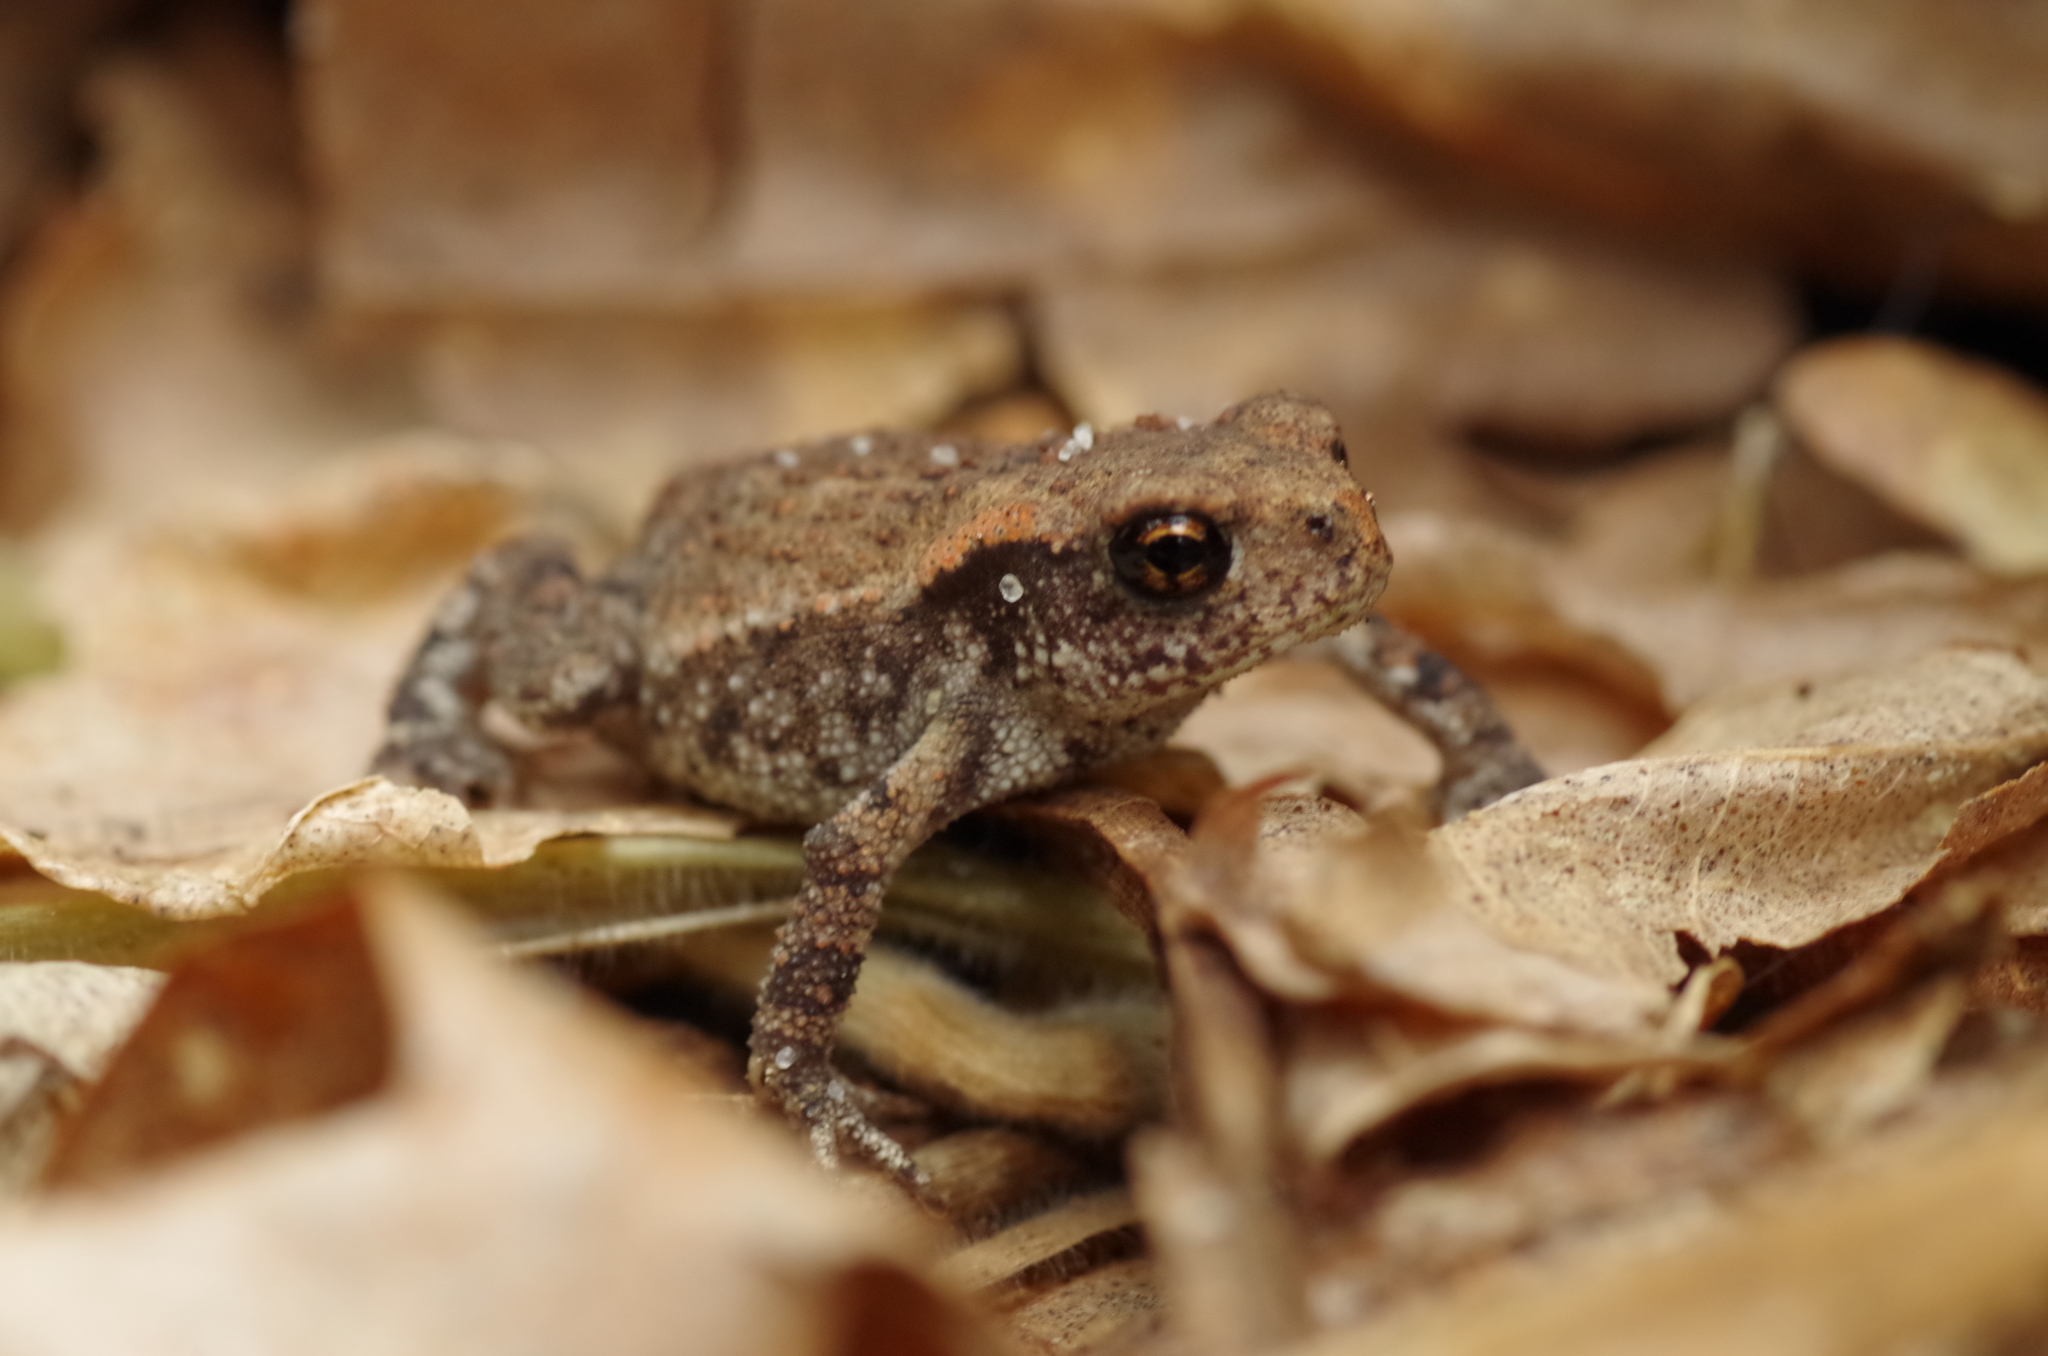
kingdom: Animalia
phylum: Chordata
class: Amphibia
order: Anura
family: Bufonidae
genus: Bufo
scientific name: Bufo spinosus
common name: Western common toad
